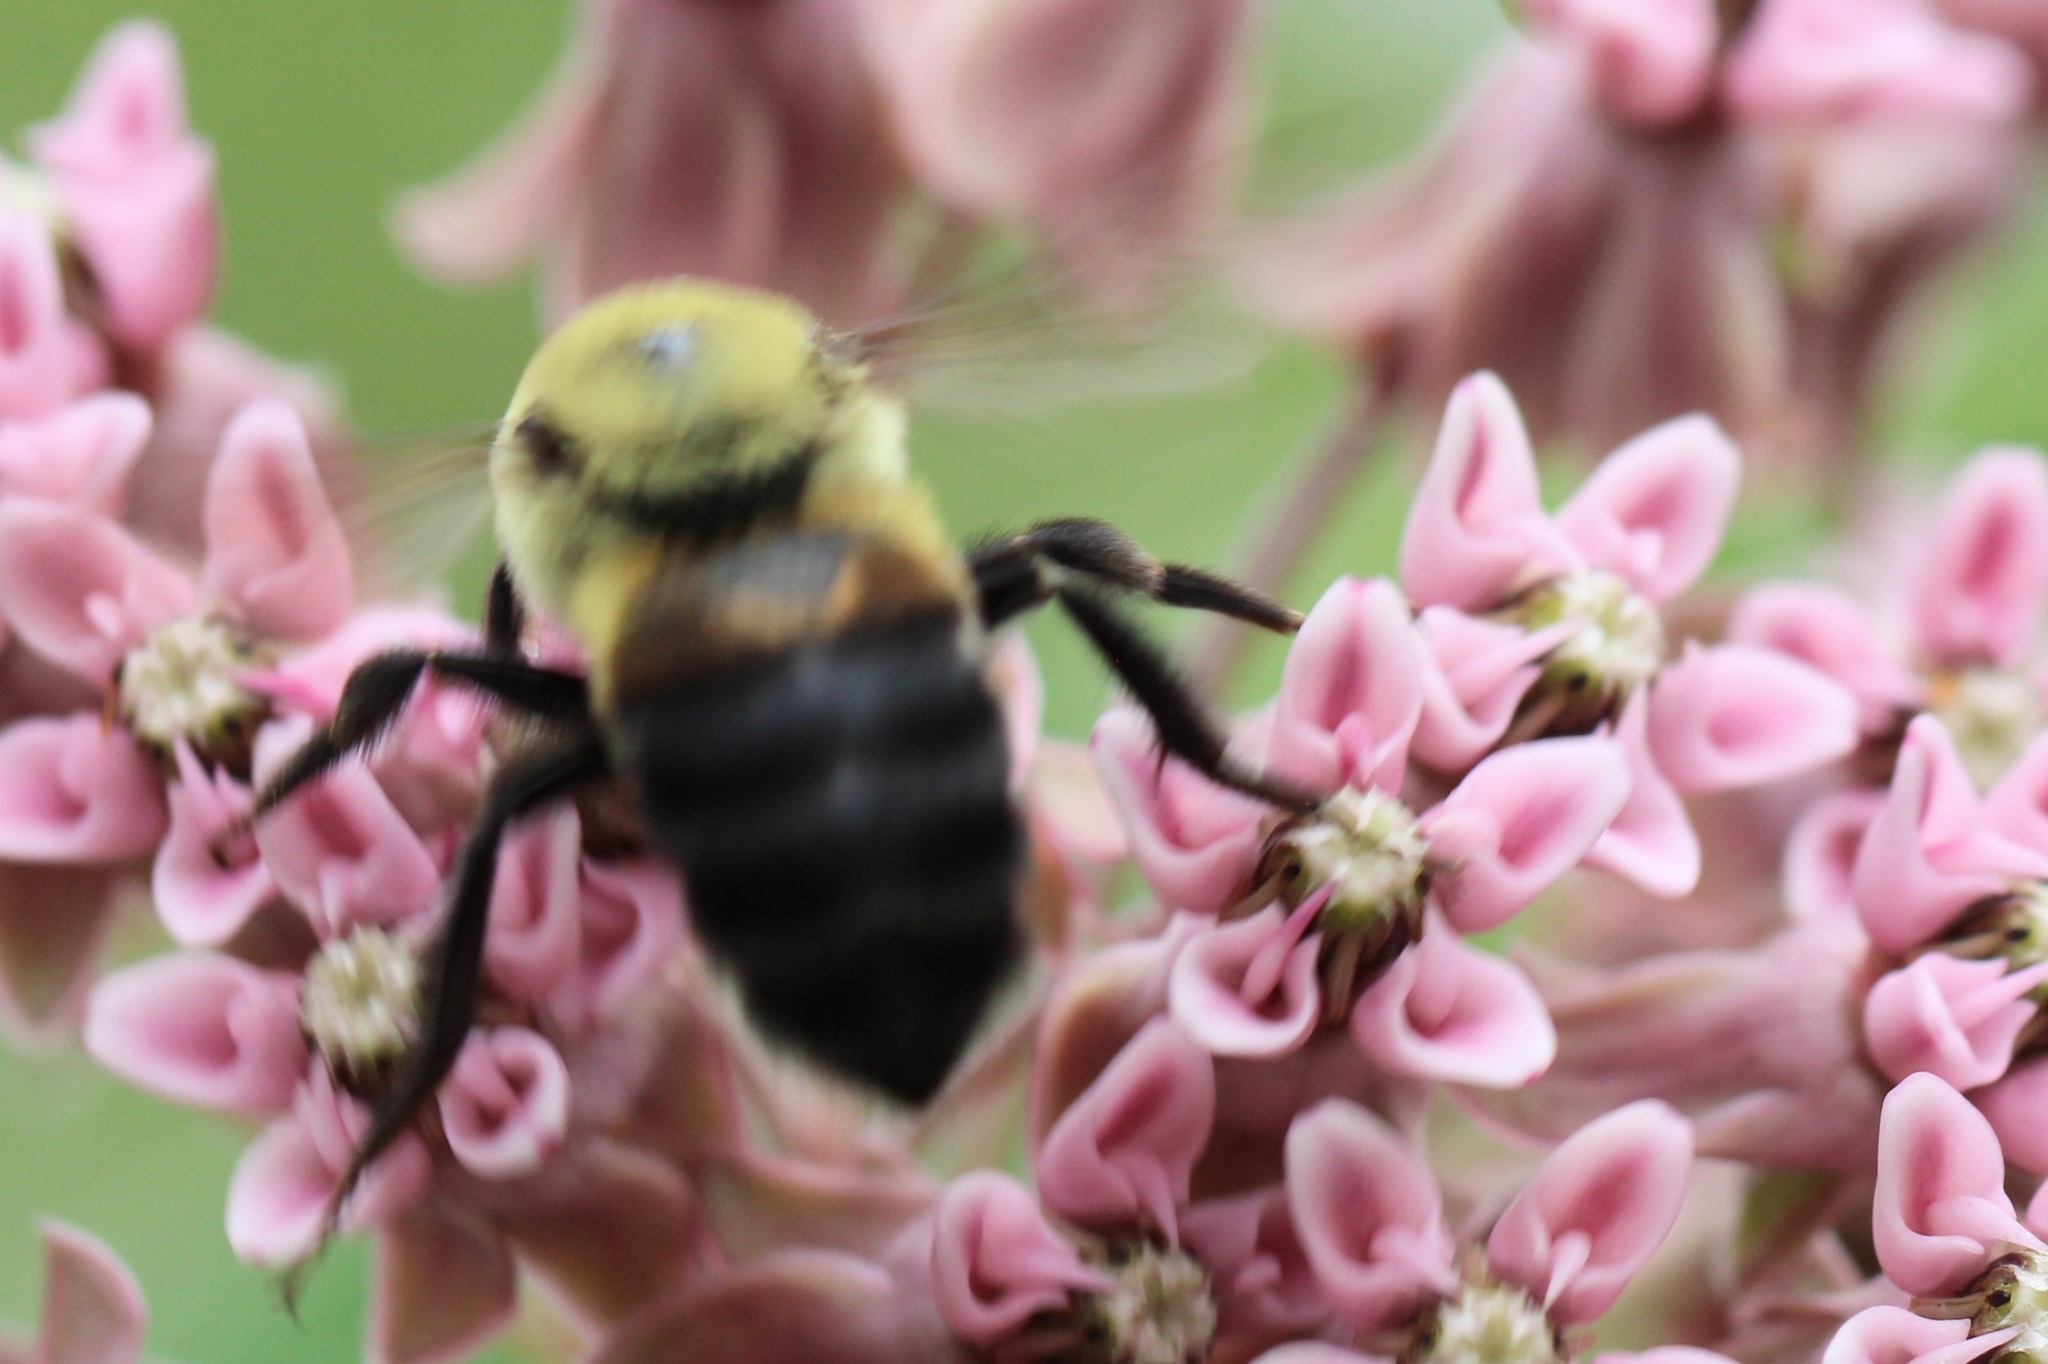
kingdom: Animalia
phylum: Arthropoda
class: Insecta
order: Hymenoptera
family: Apidae
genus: Bombus
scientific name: Bombus griseocollis
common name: Brown-belted bumble bee
